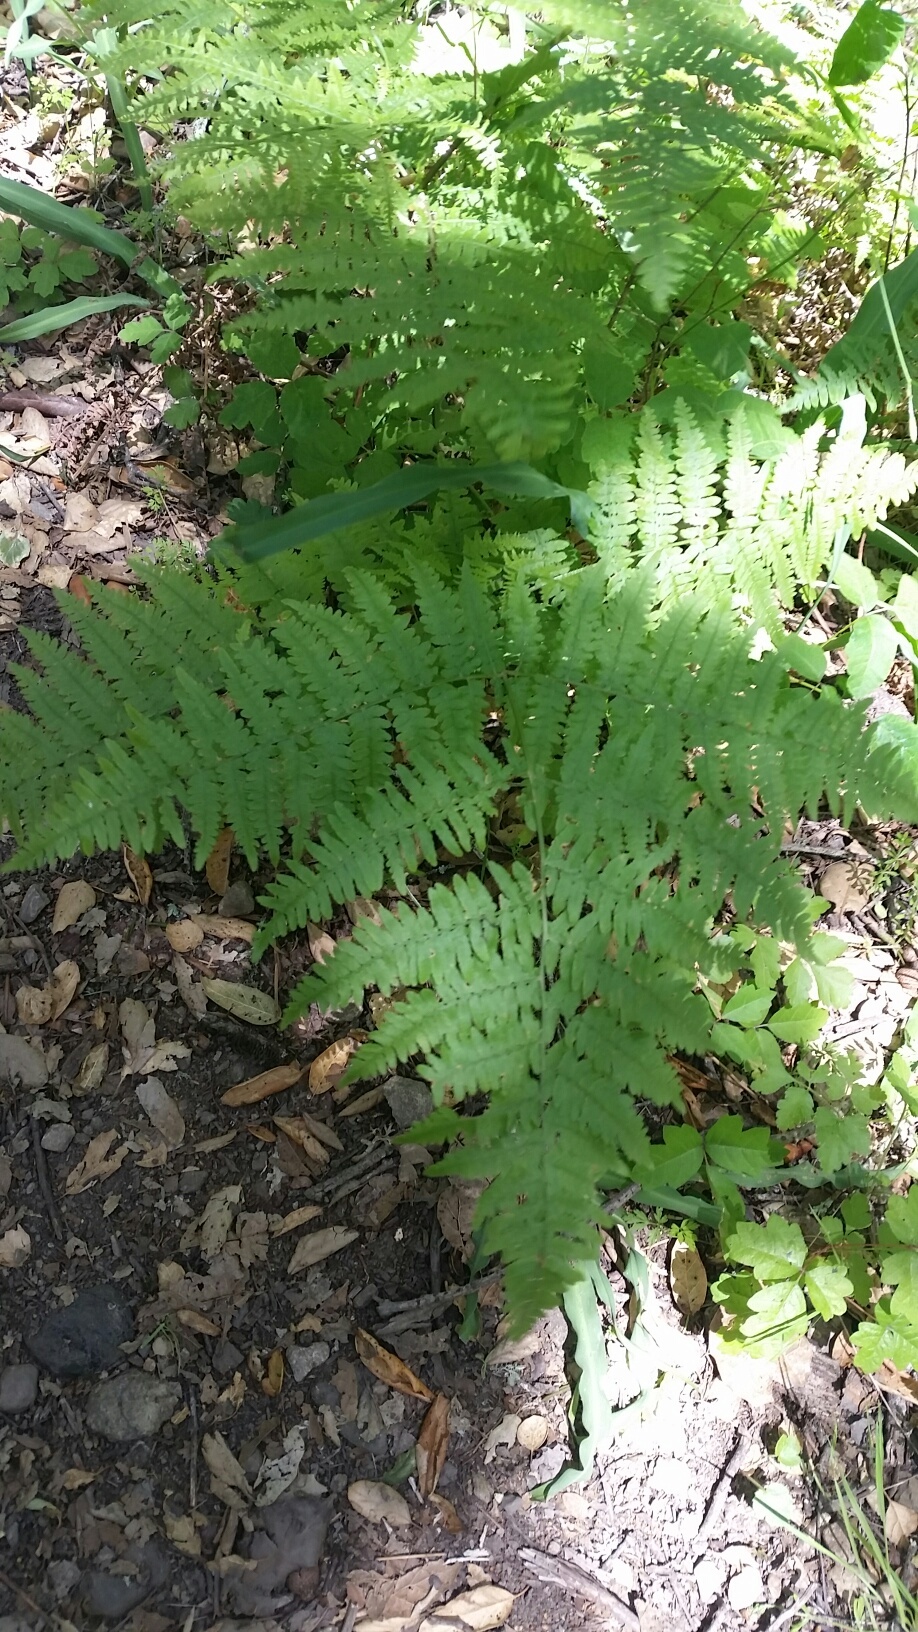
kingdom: Plantae
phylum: Tracheophyta
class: Polypodiopsida
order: Polypodiales
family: Dennstaedtiaceae
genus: Pteridium
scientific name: Pteridium aquilinum
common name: Bracken
